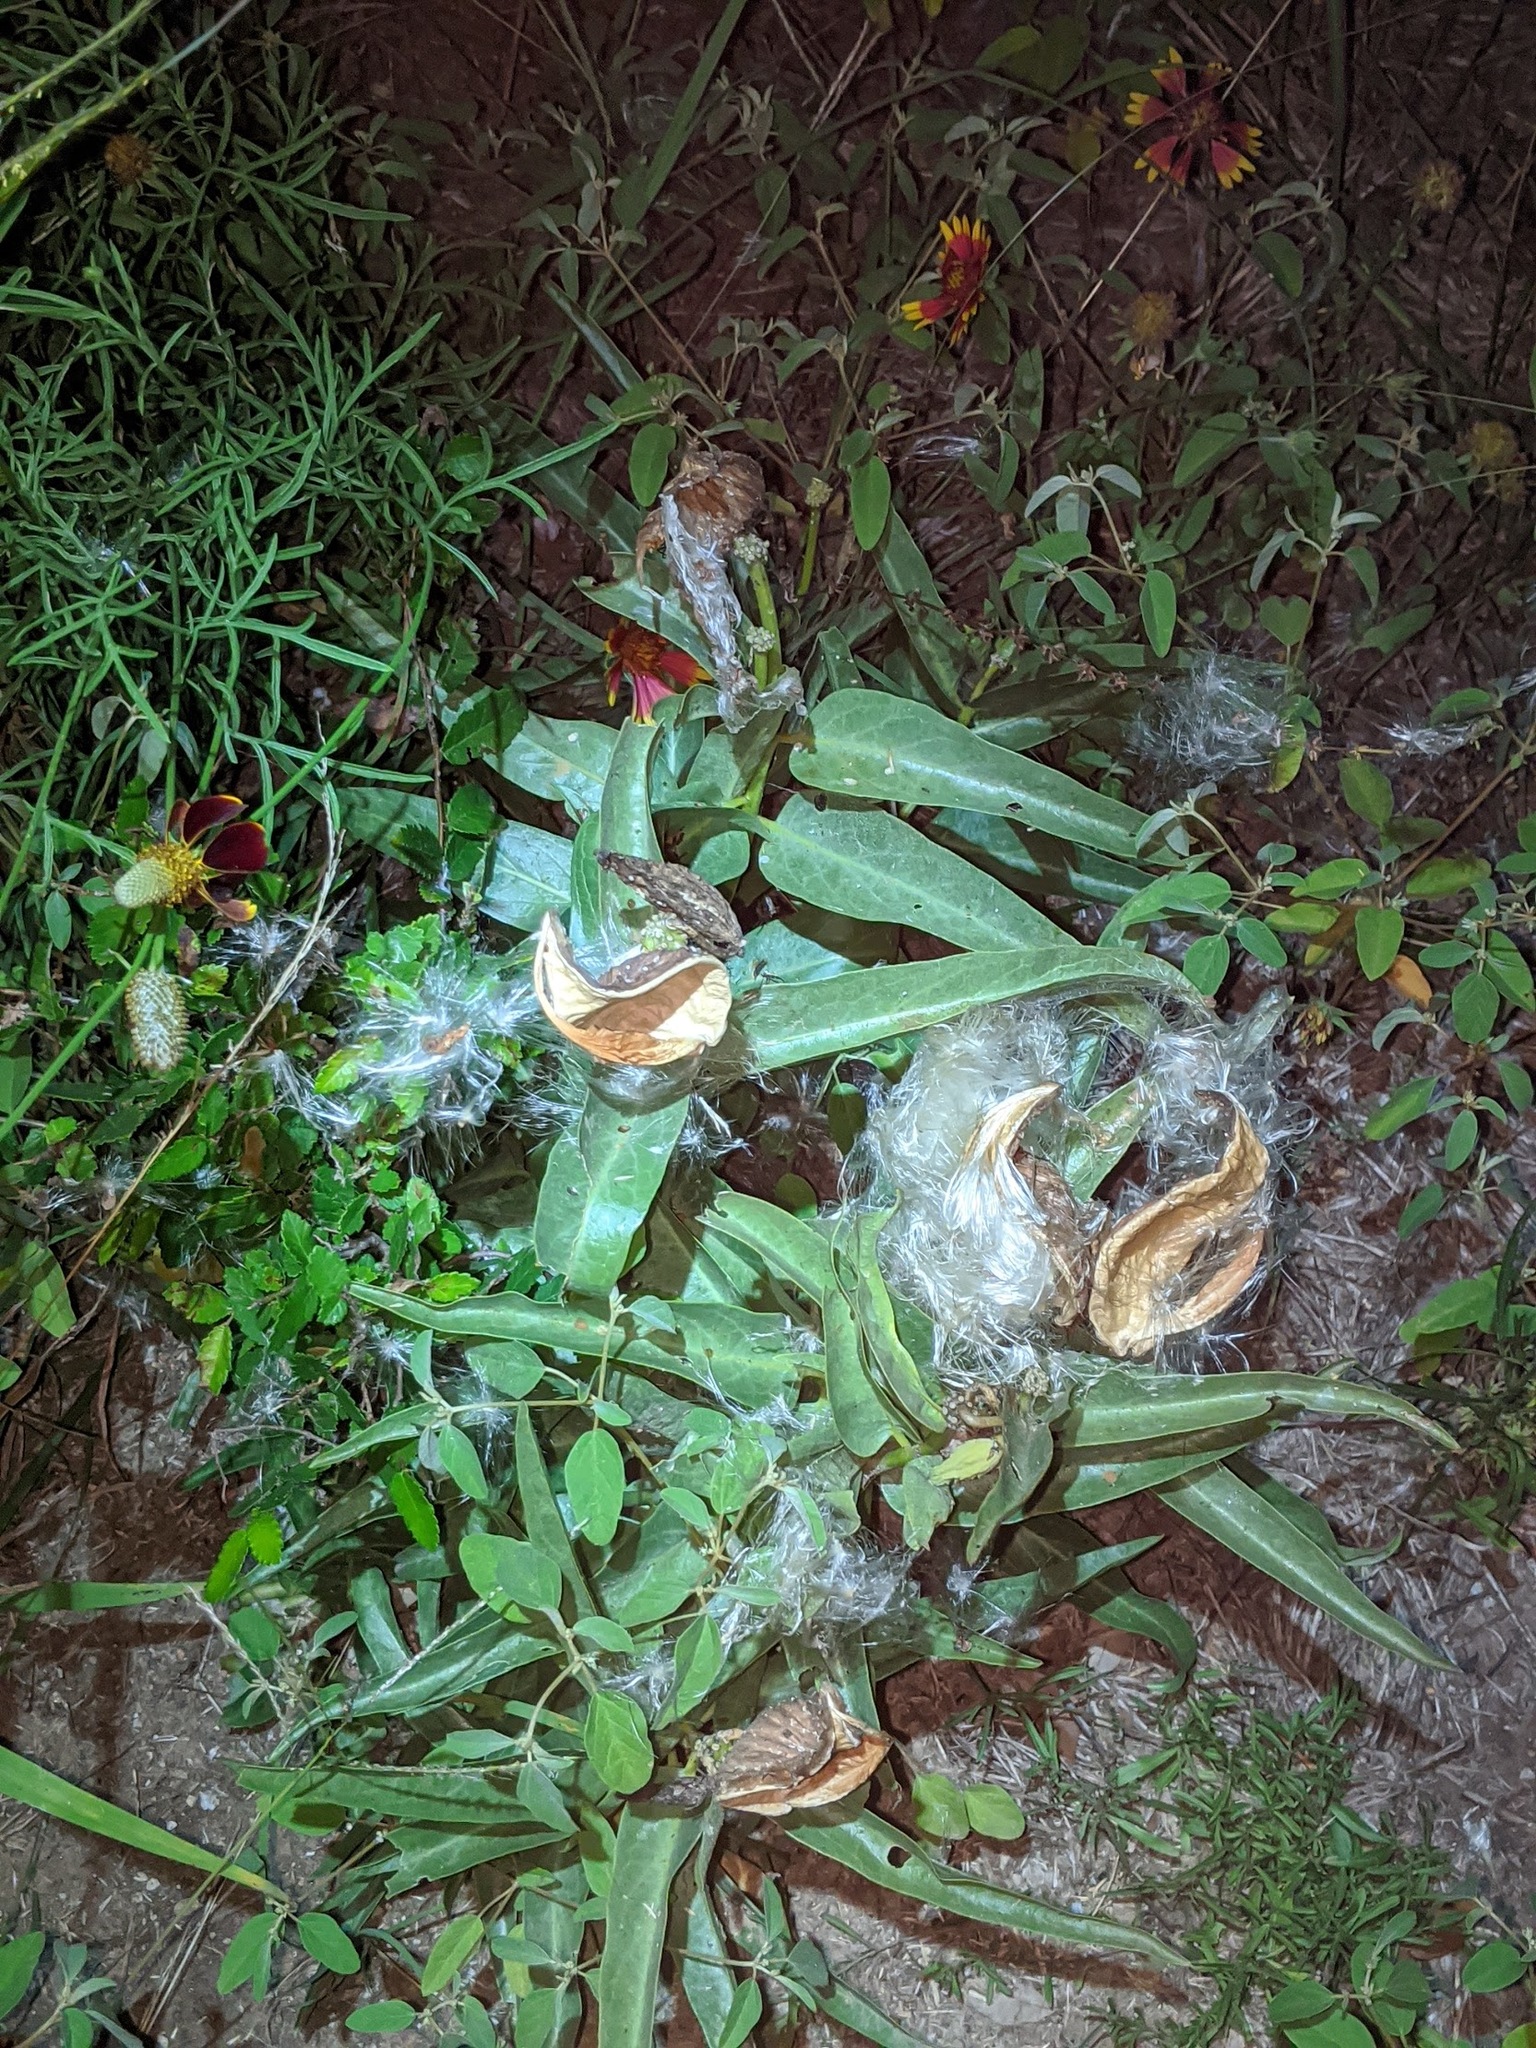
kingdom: Plantae
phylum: Tracheophyta
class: Magnoliopsida
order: Gentianales
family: Apocynaceae
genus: Asclepias
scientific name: Asclepias asperula
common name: Antelope horns
